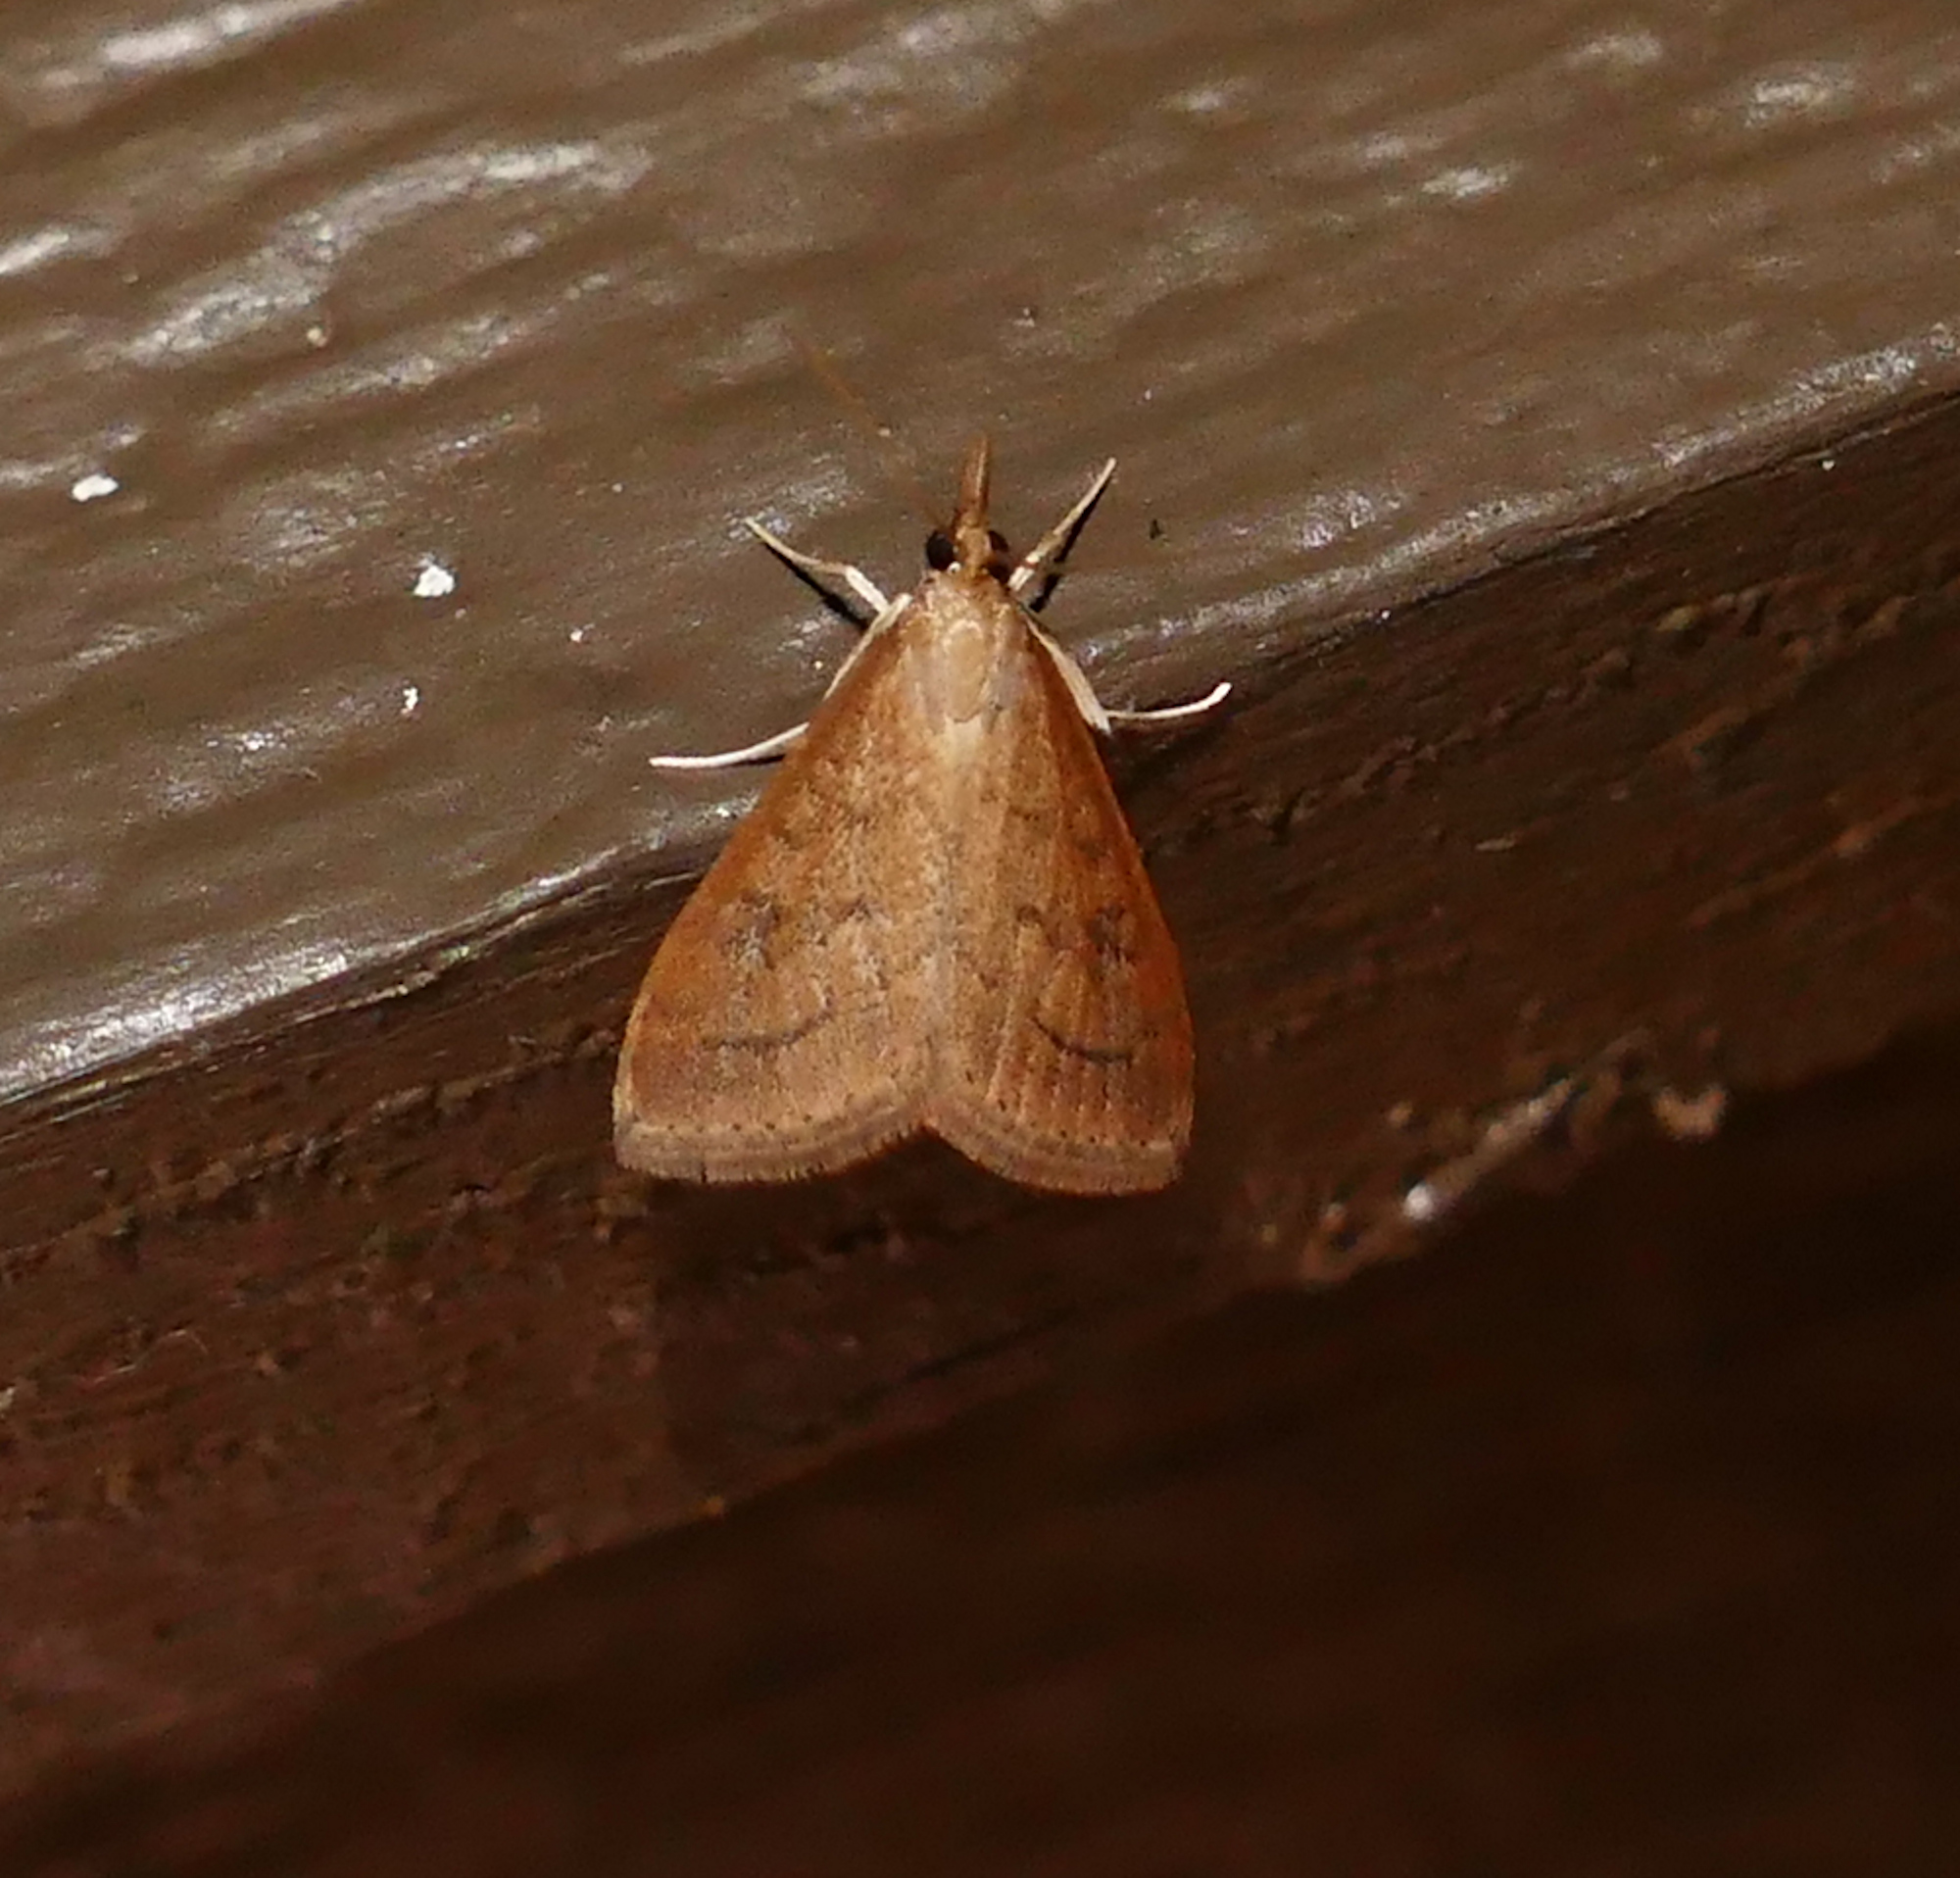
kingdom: Animalia
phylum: Arthropoda
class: Insecta
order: Lepidoptera
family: Crambidae
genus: Udea
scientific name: Udea rubigalis
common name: Celery leaftier moth
